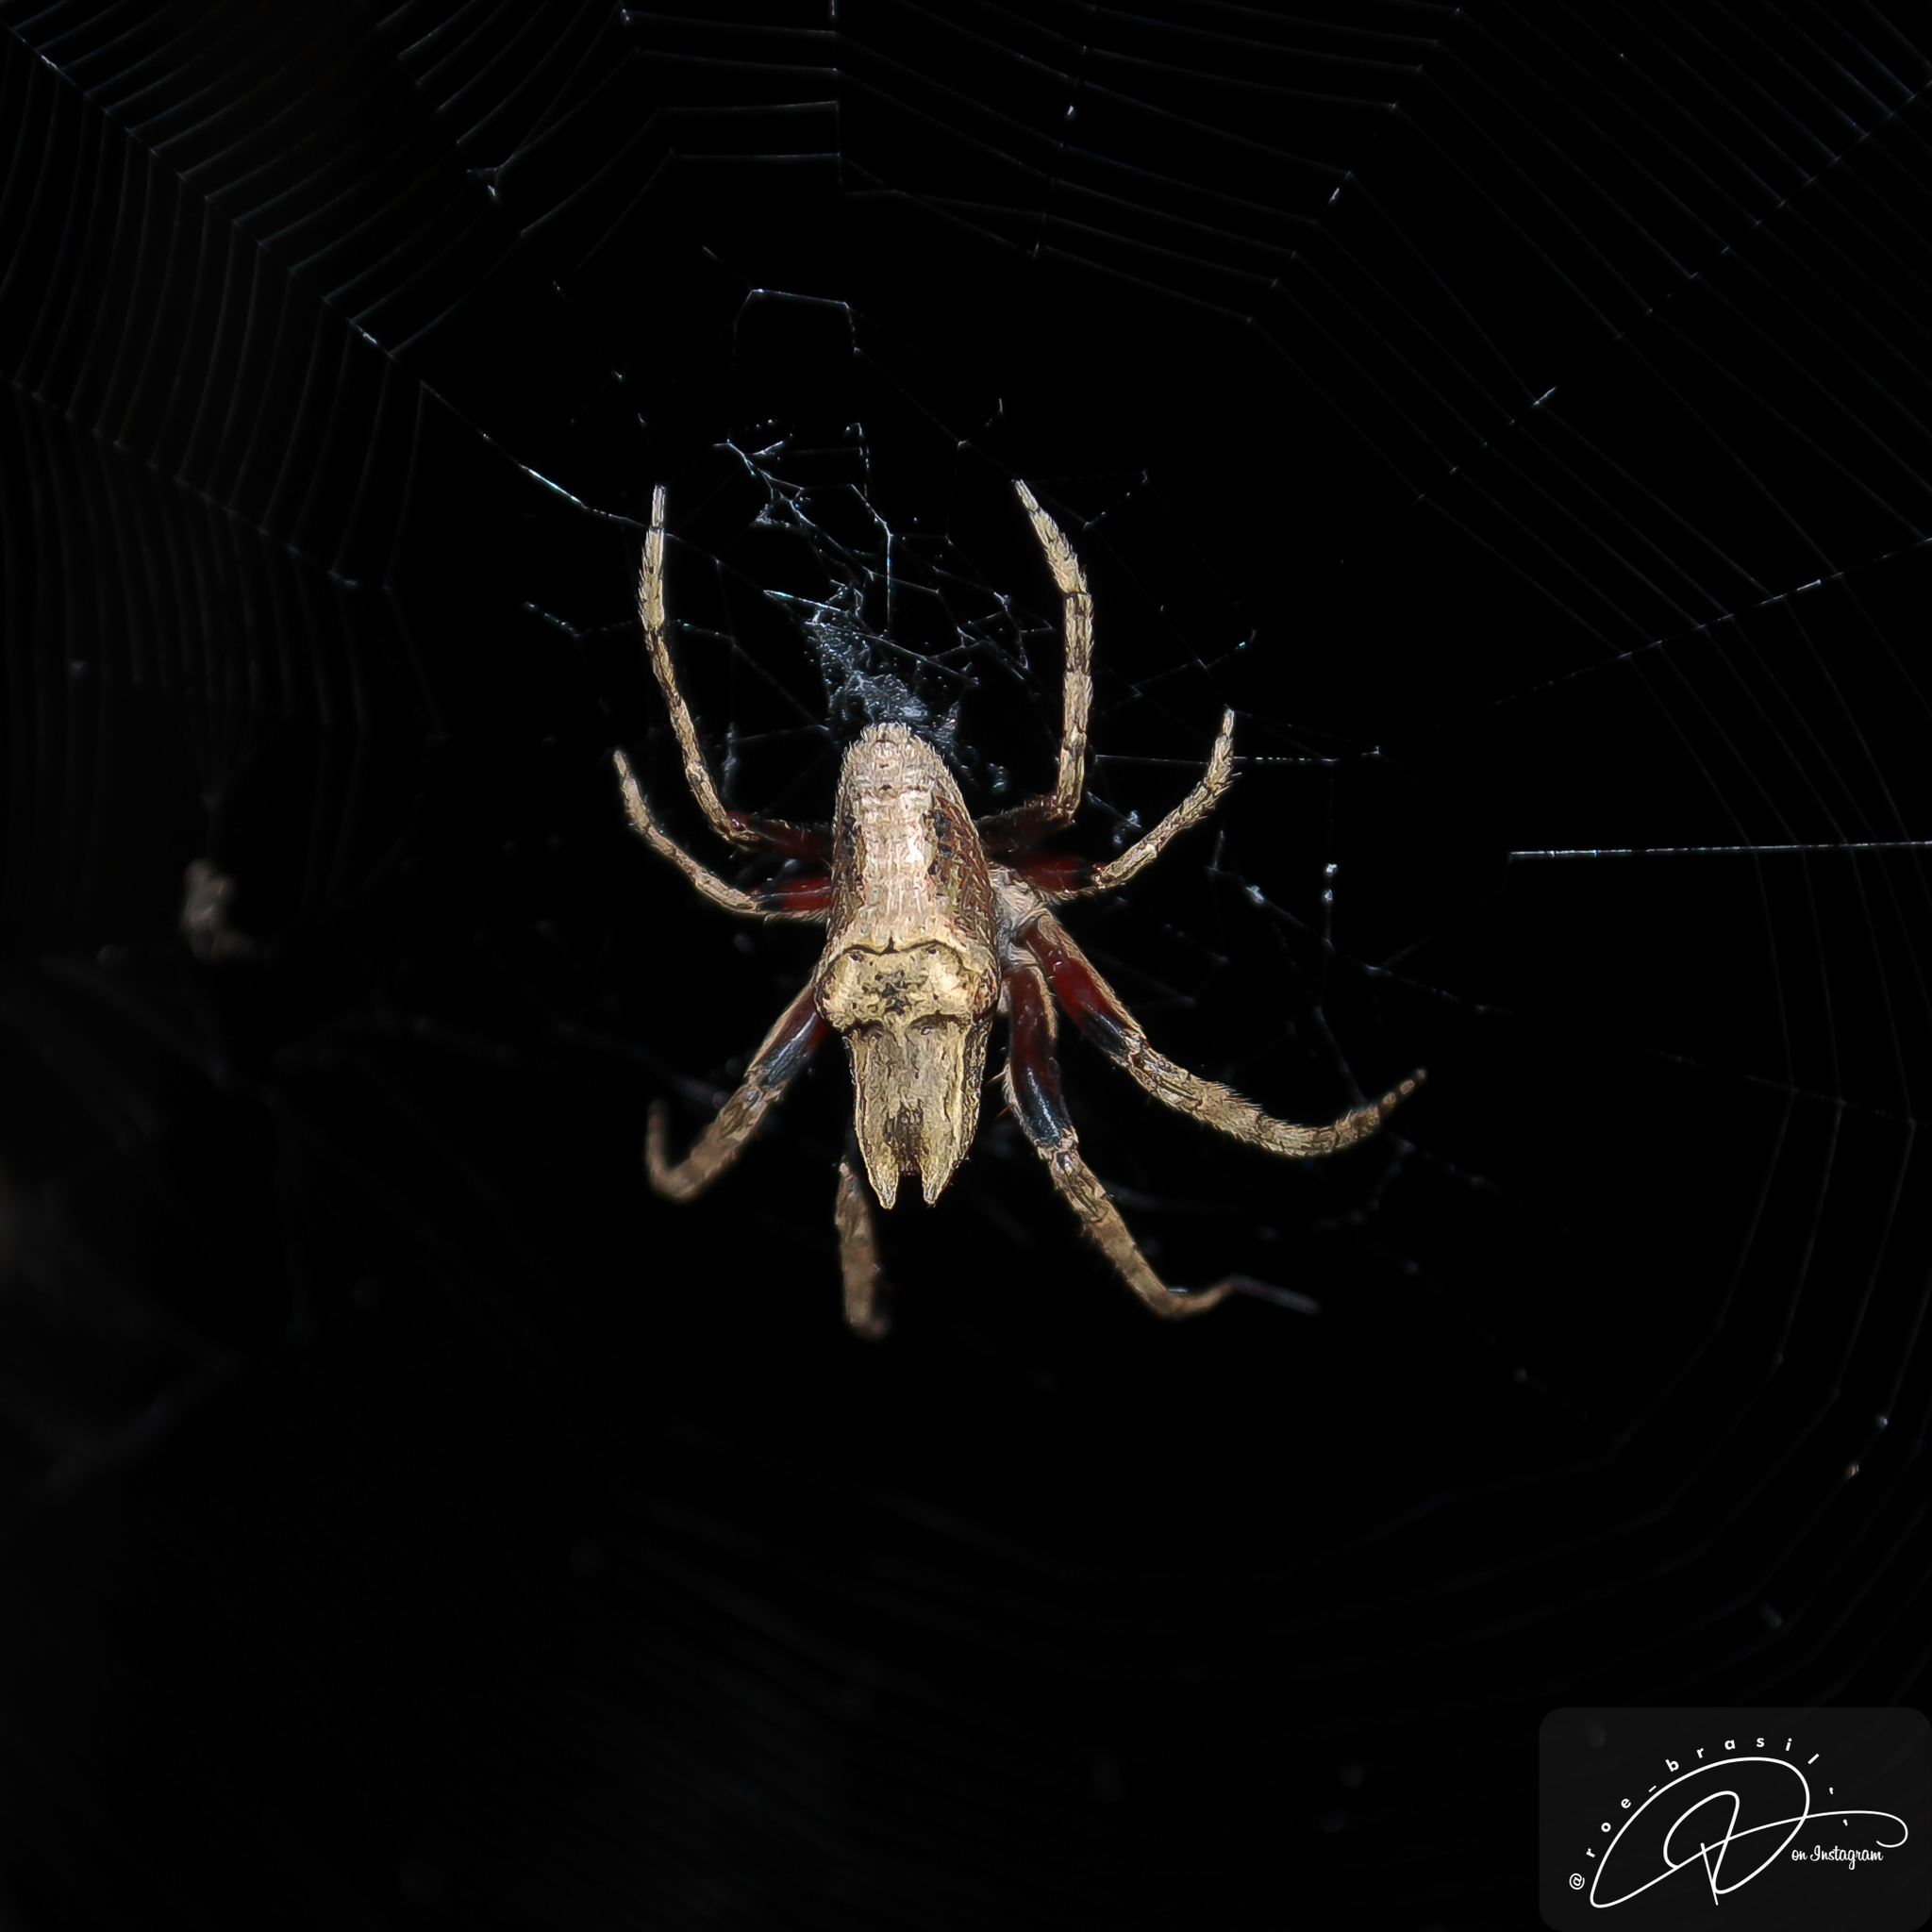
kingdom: Animalia
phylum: Arthropoda
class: Arachnida
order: Araneae
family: Araneidae
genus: Pozonia
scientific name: Pozonia bacillifera
